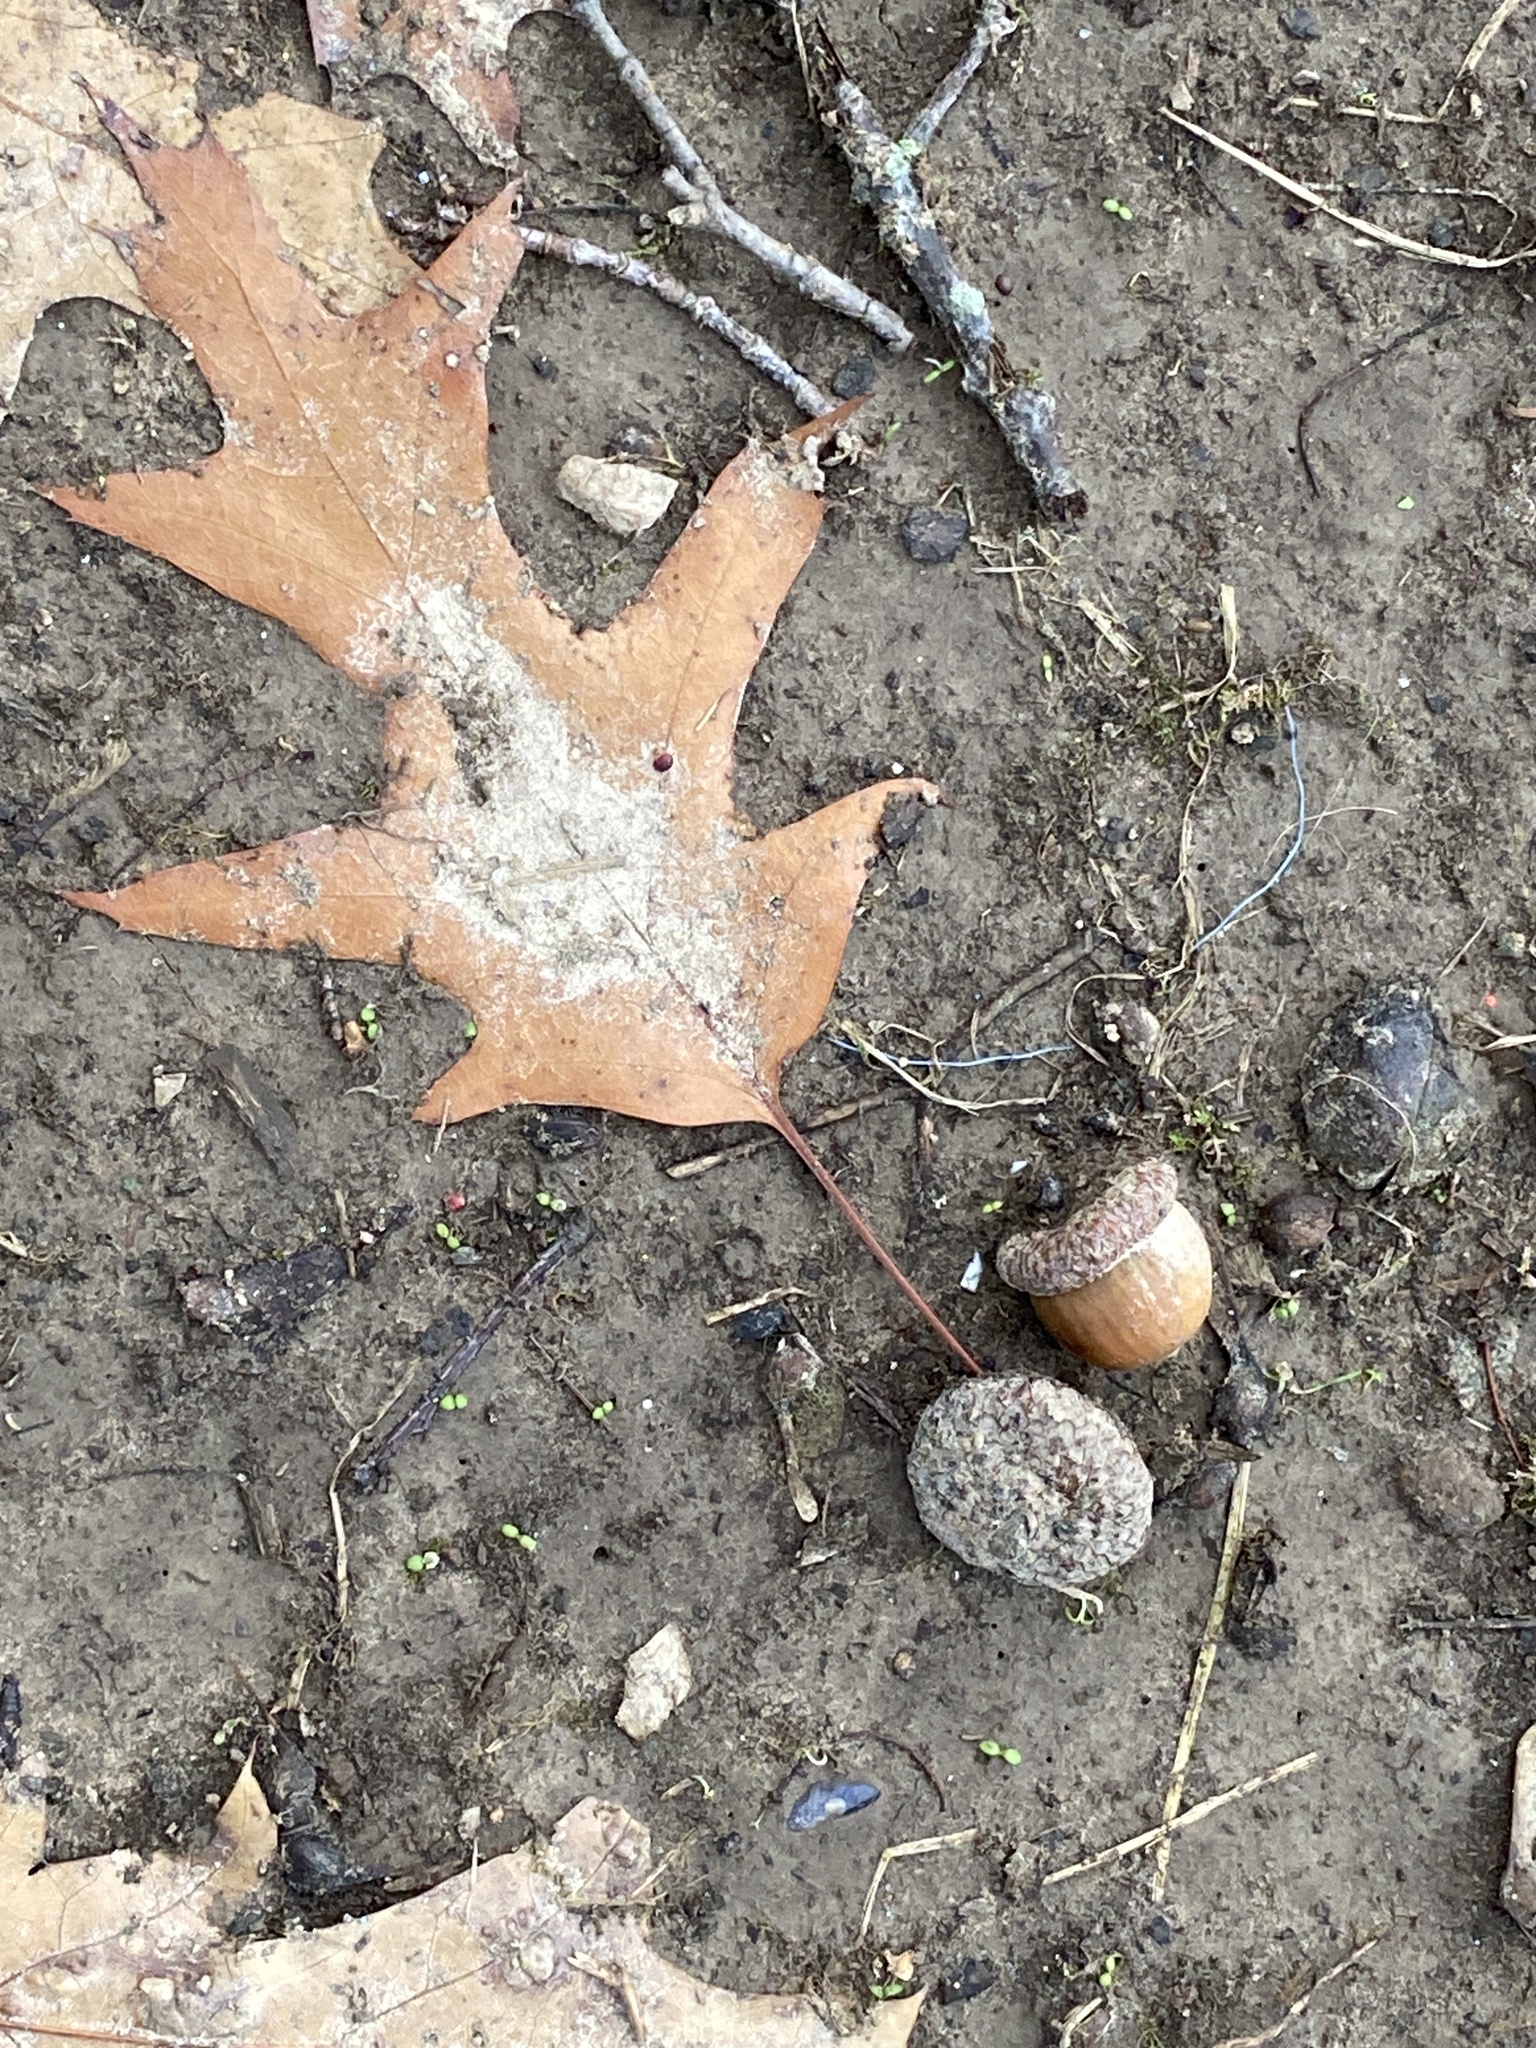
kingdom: Plantae
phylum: Tracheophyta
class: Magnoliopsida
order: Fagales
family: Fagaceae
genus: Quercus
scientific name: Quercus rubra
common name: Red oak
